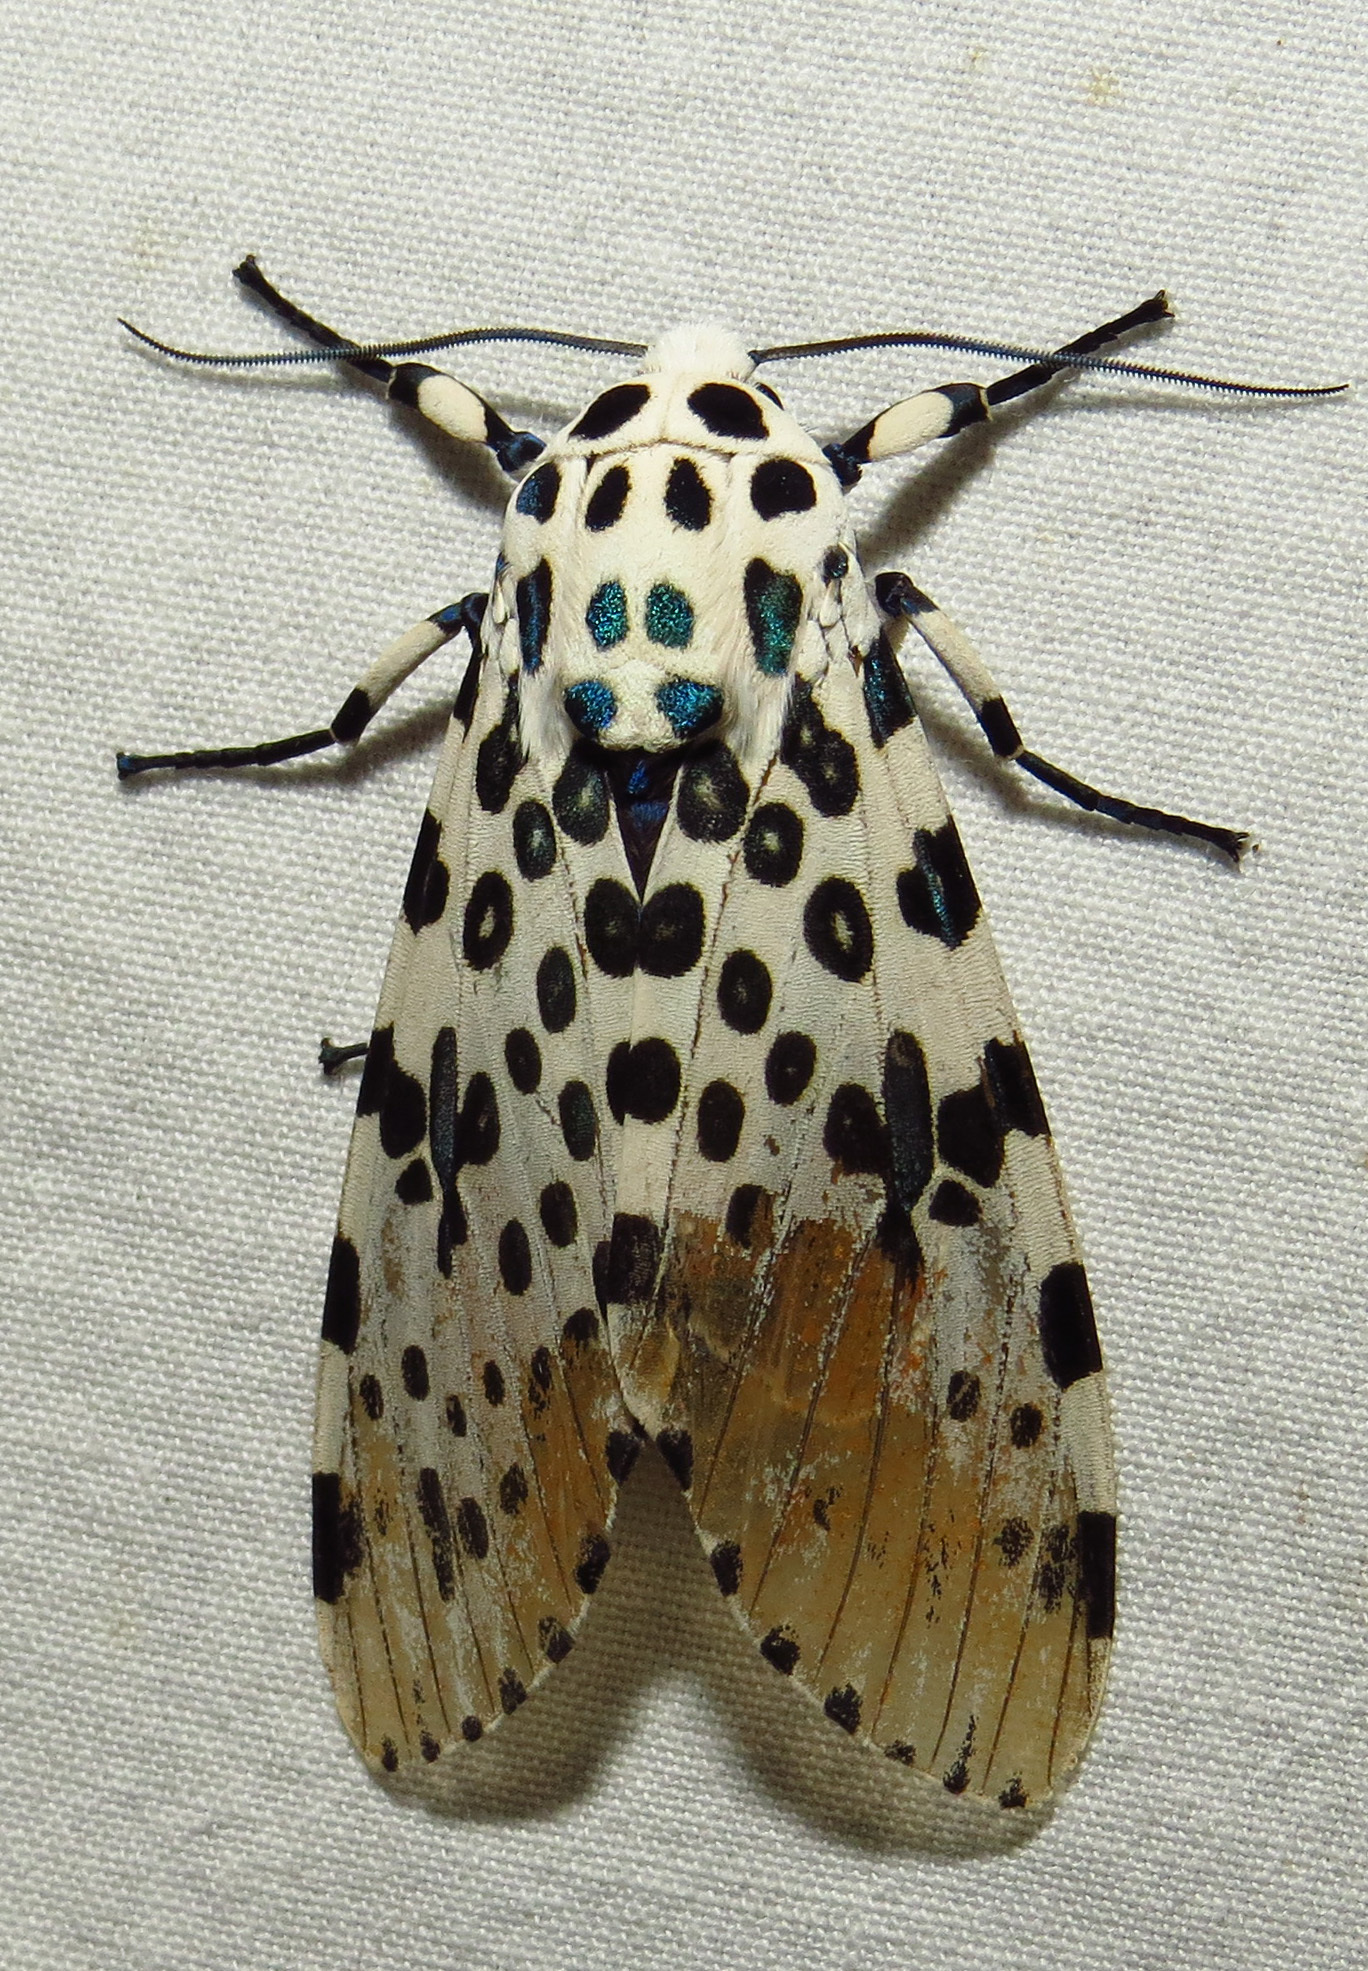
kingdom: Animalia
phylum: Arthropoda
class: Insecta
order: Lepidoptera
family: Erebidae
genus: Hypercompe
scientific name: Hypercompe scribonia
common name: Giant leopard moth
